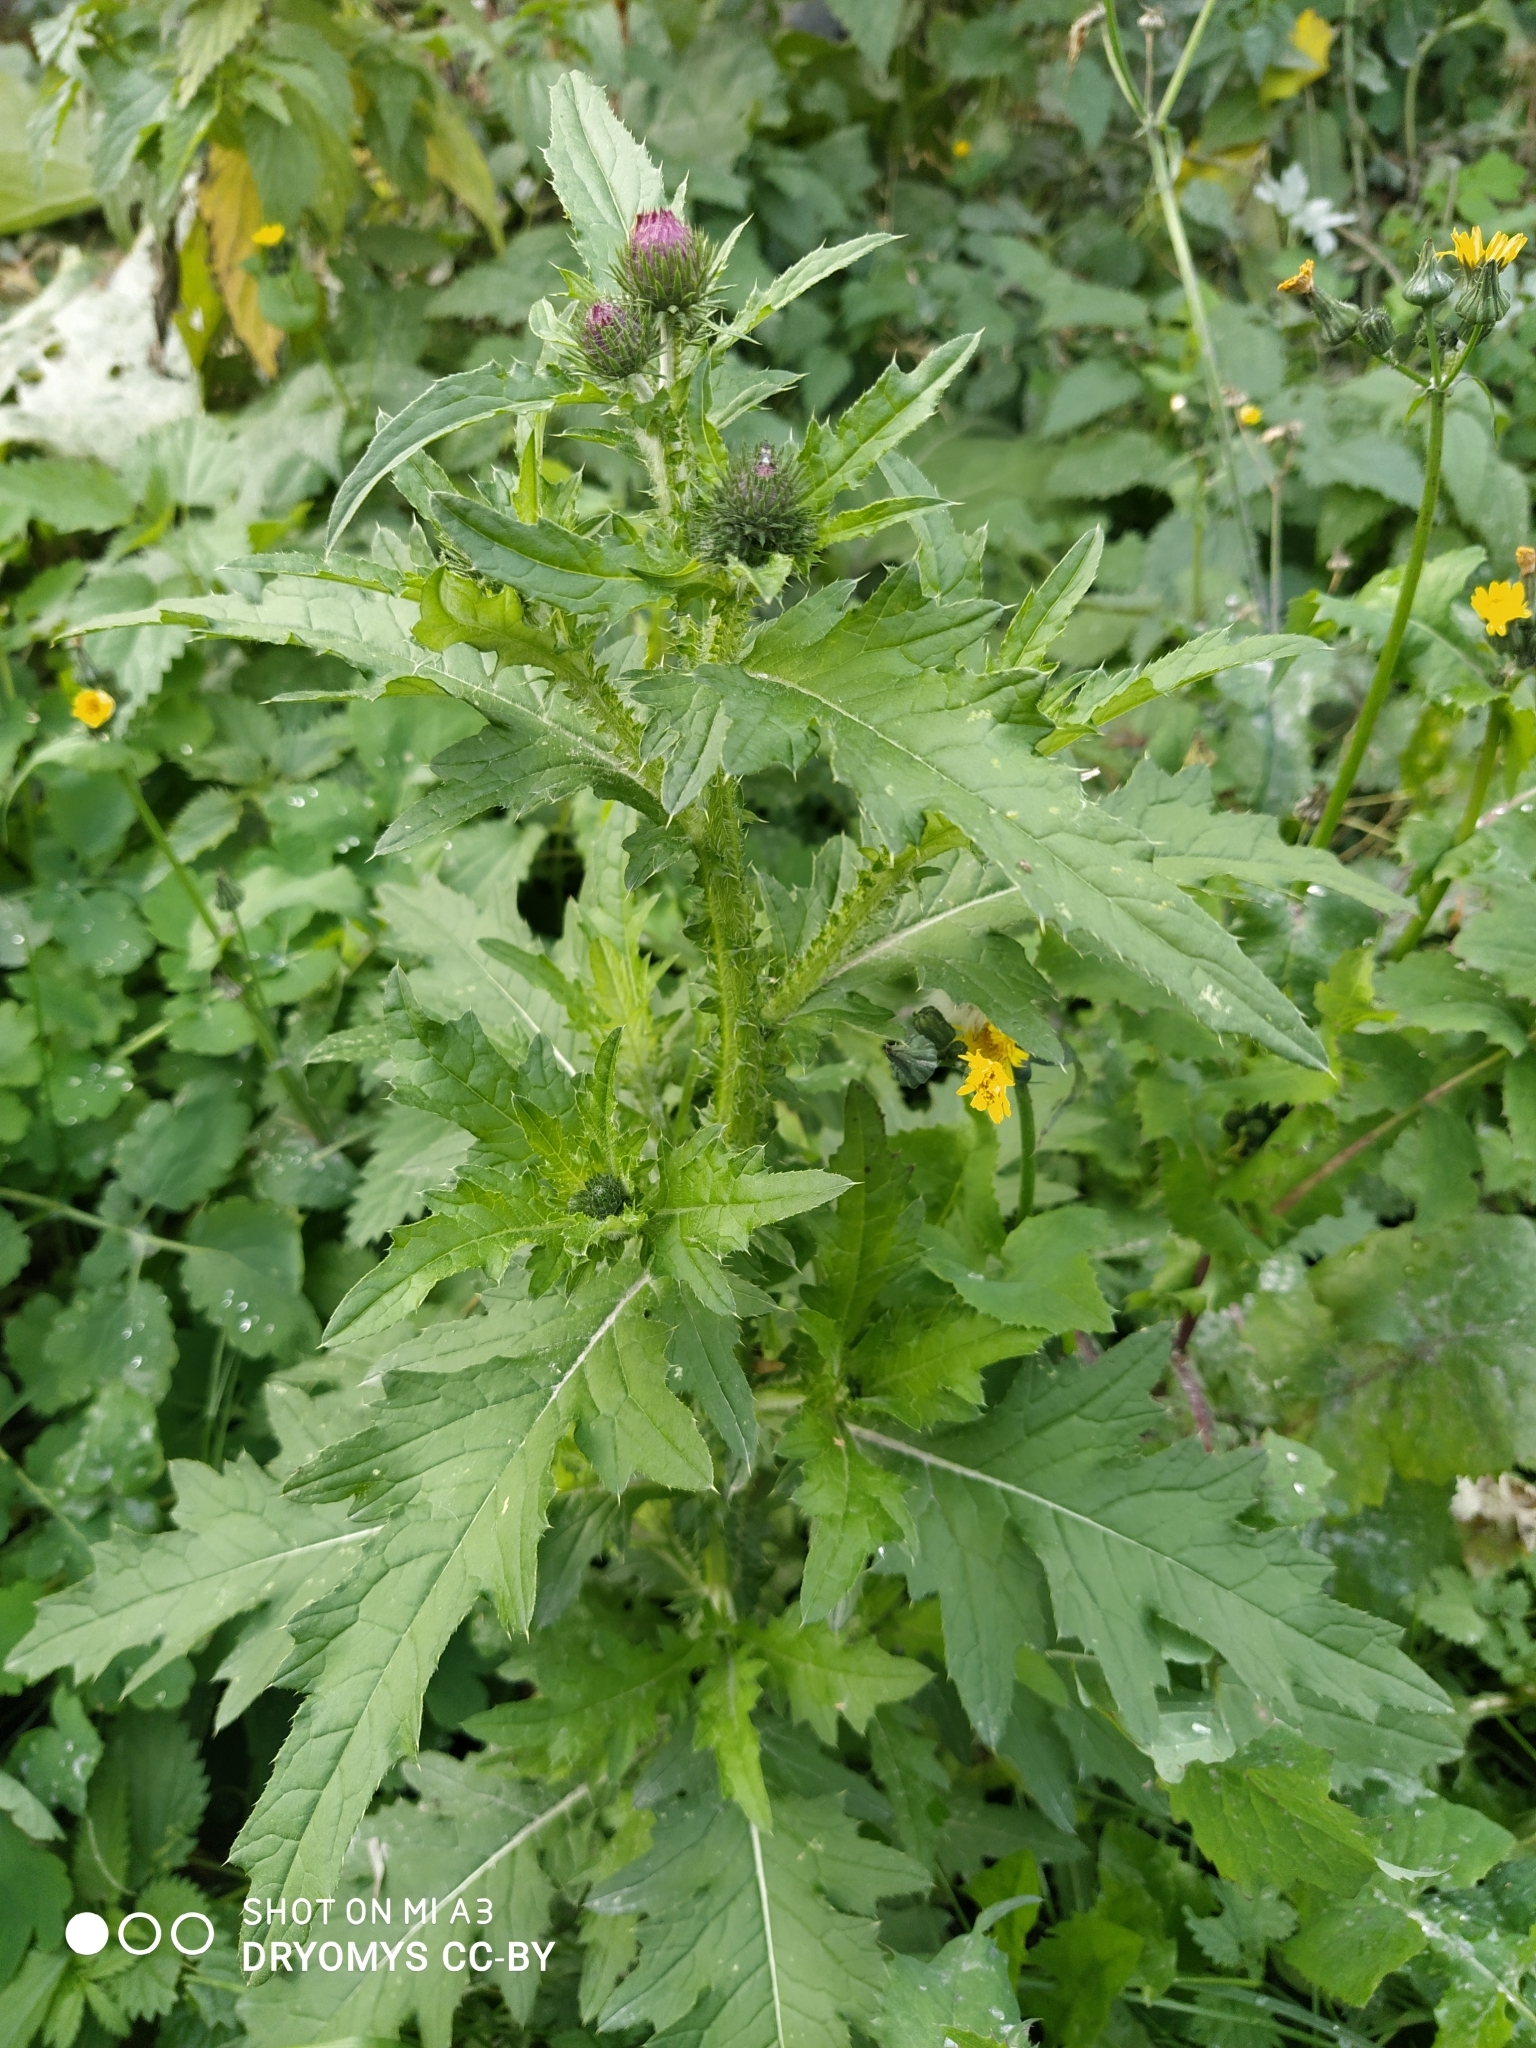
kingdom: Plantae
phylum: Tracheophyta
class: Magnoliopsida
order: Asterales
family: Asteraceae
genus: Carduus
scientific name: Carduus crispus
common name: Welted thistle
